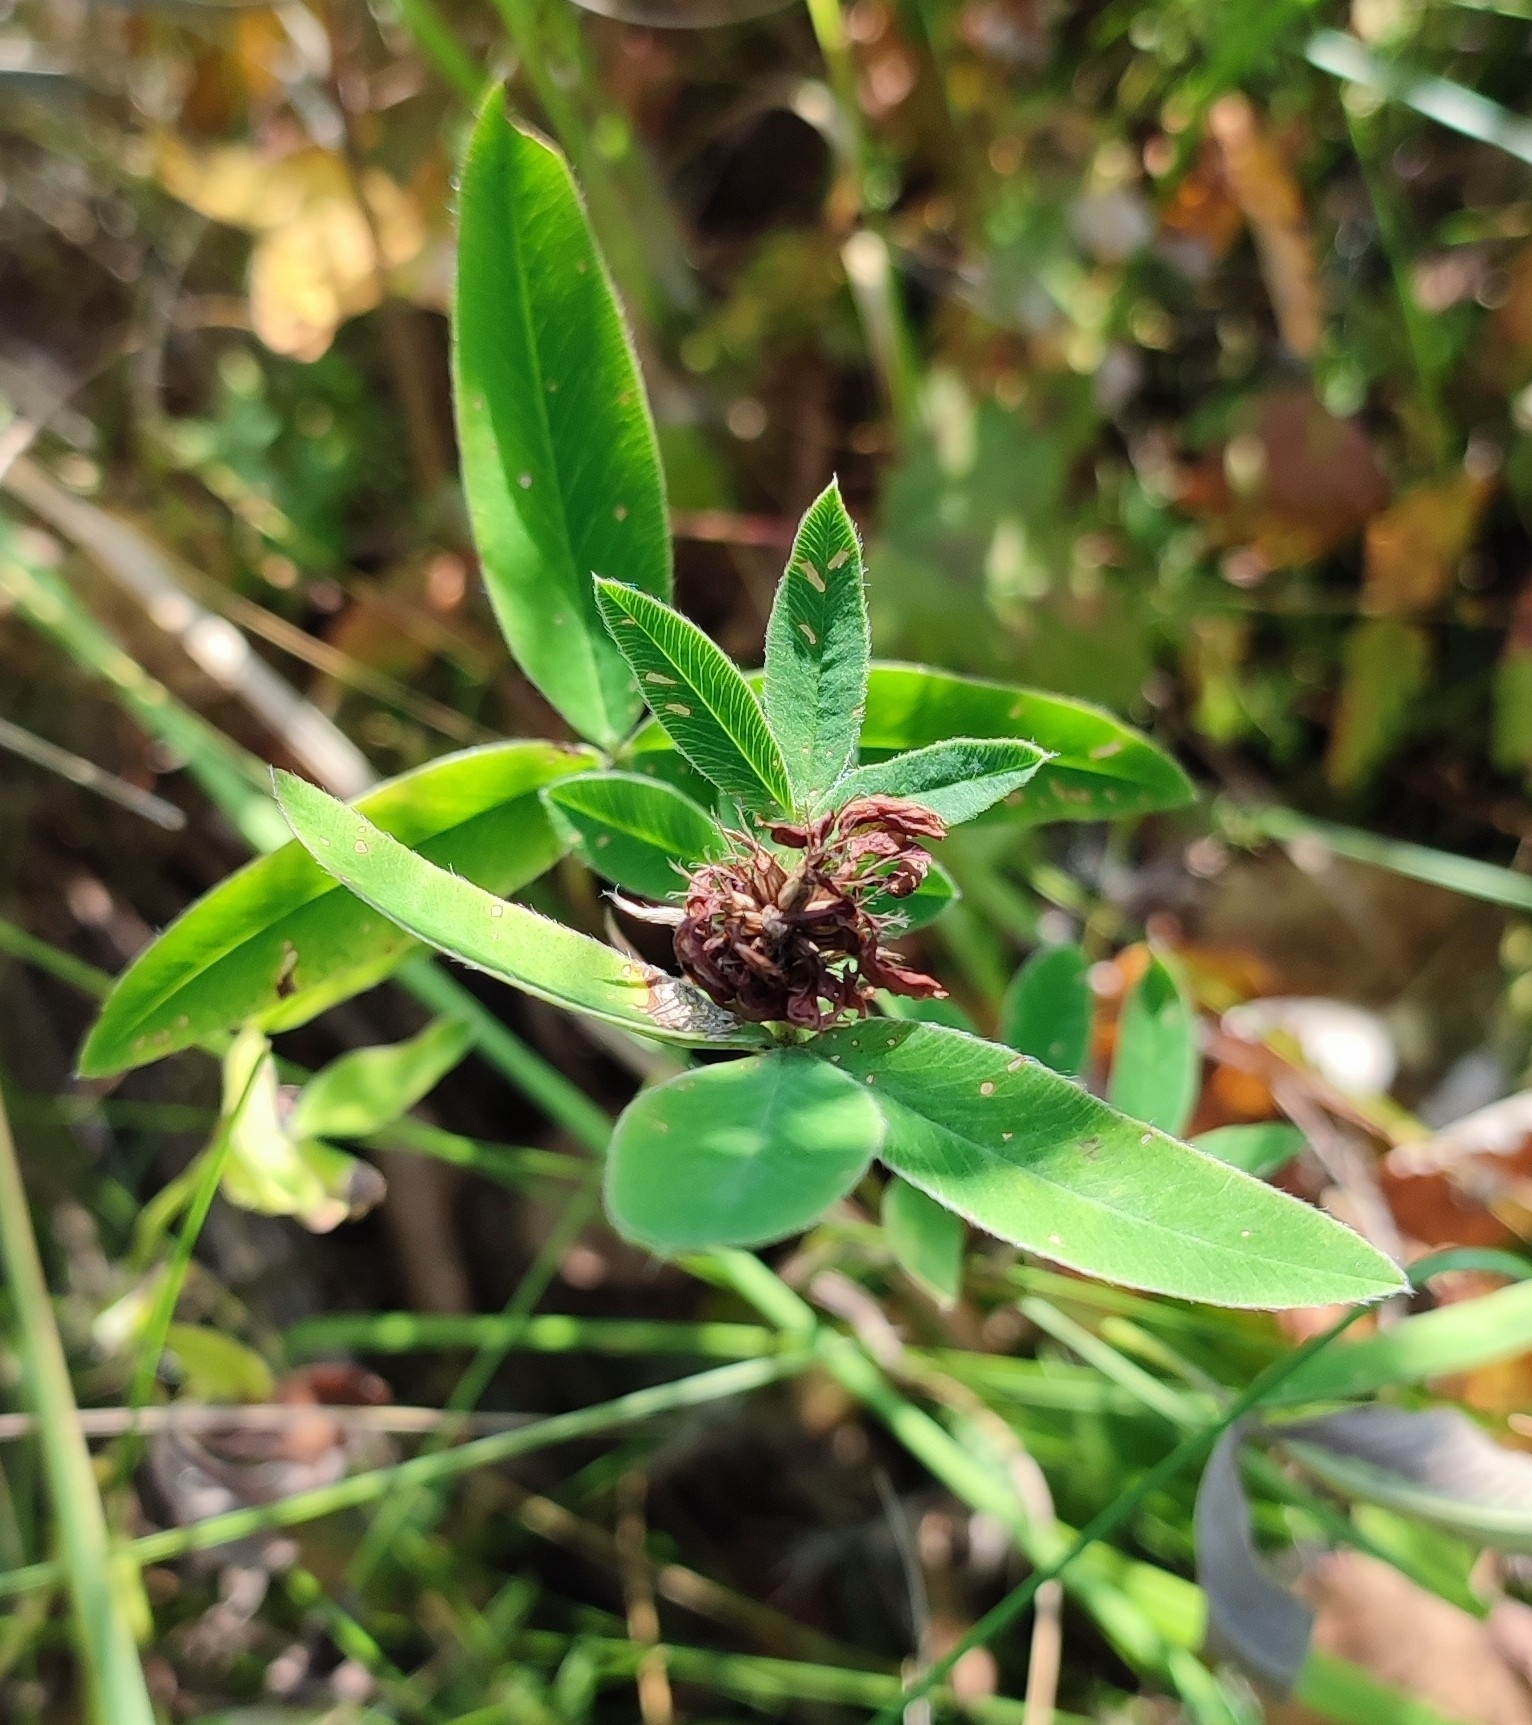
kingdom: Plantae
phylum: Tracheophyta
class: Magnoliopsida
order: Fabales
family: Fabaceae
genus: Trifolium
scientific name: Trifolium medium
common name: Zigzag clover
